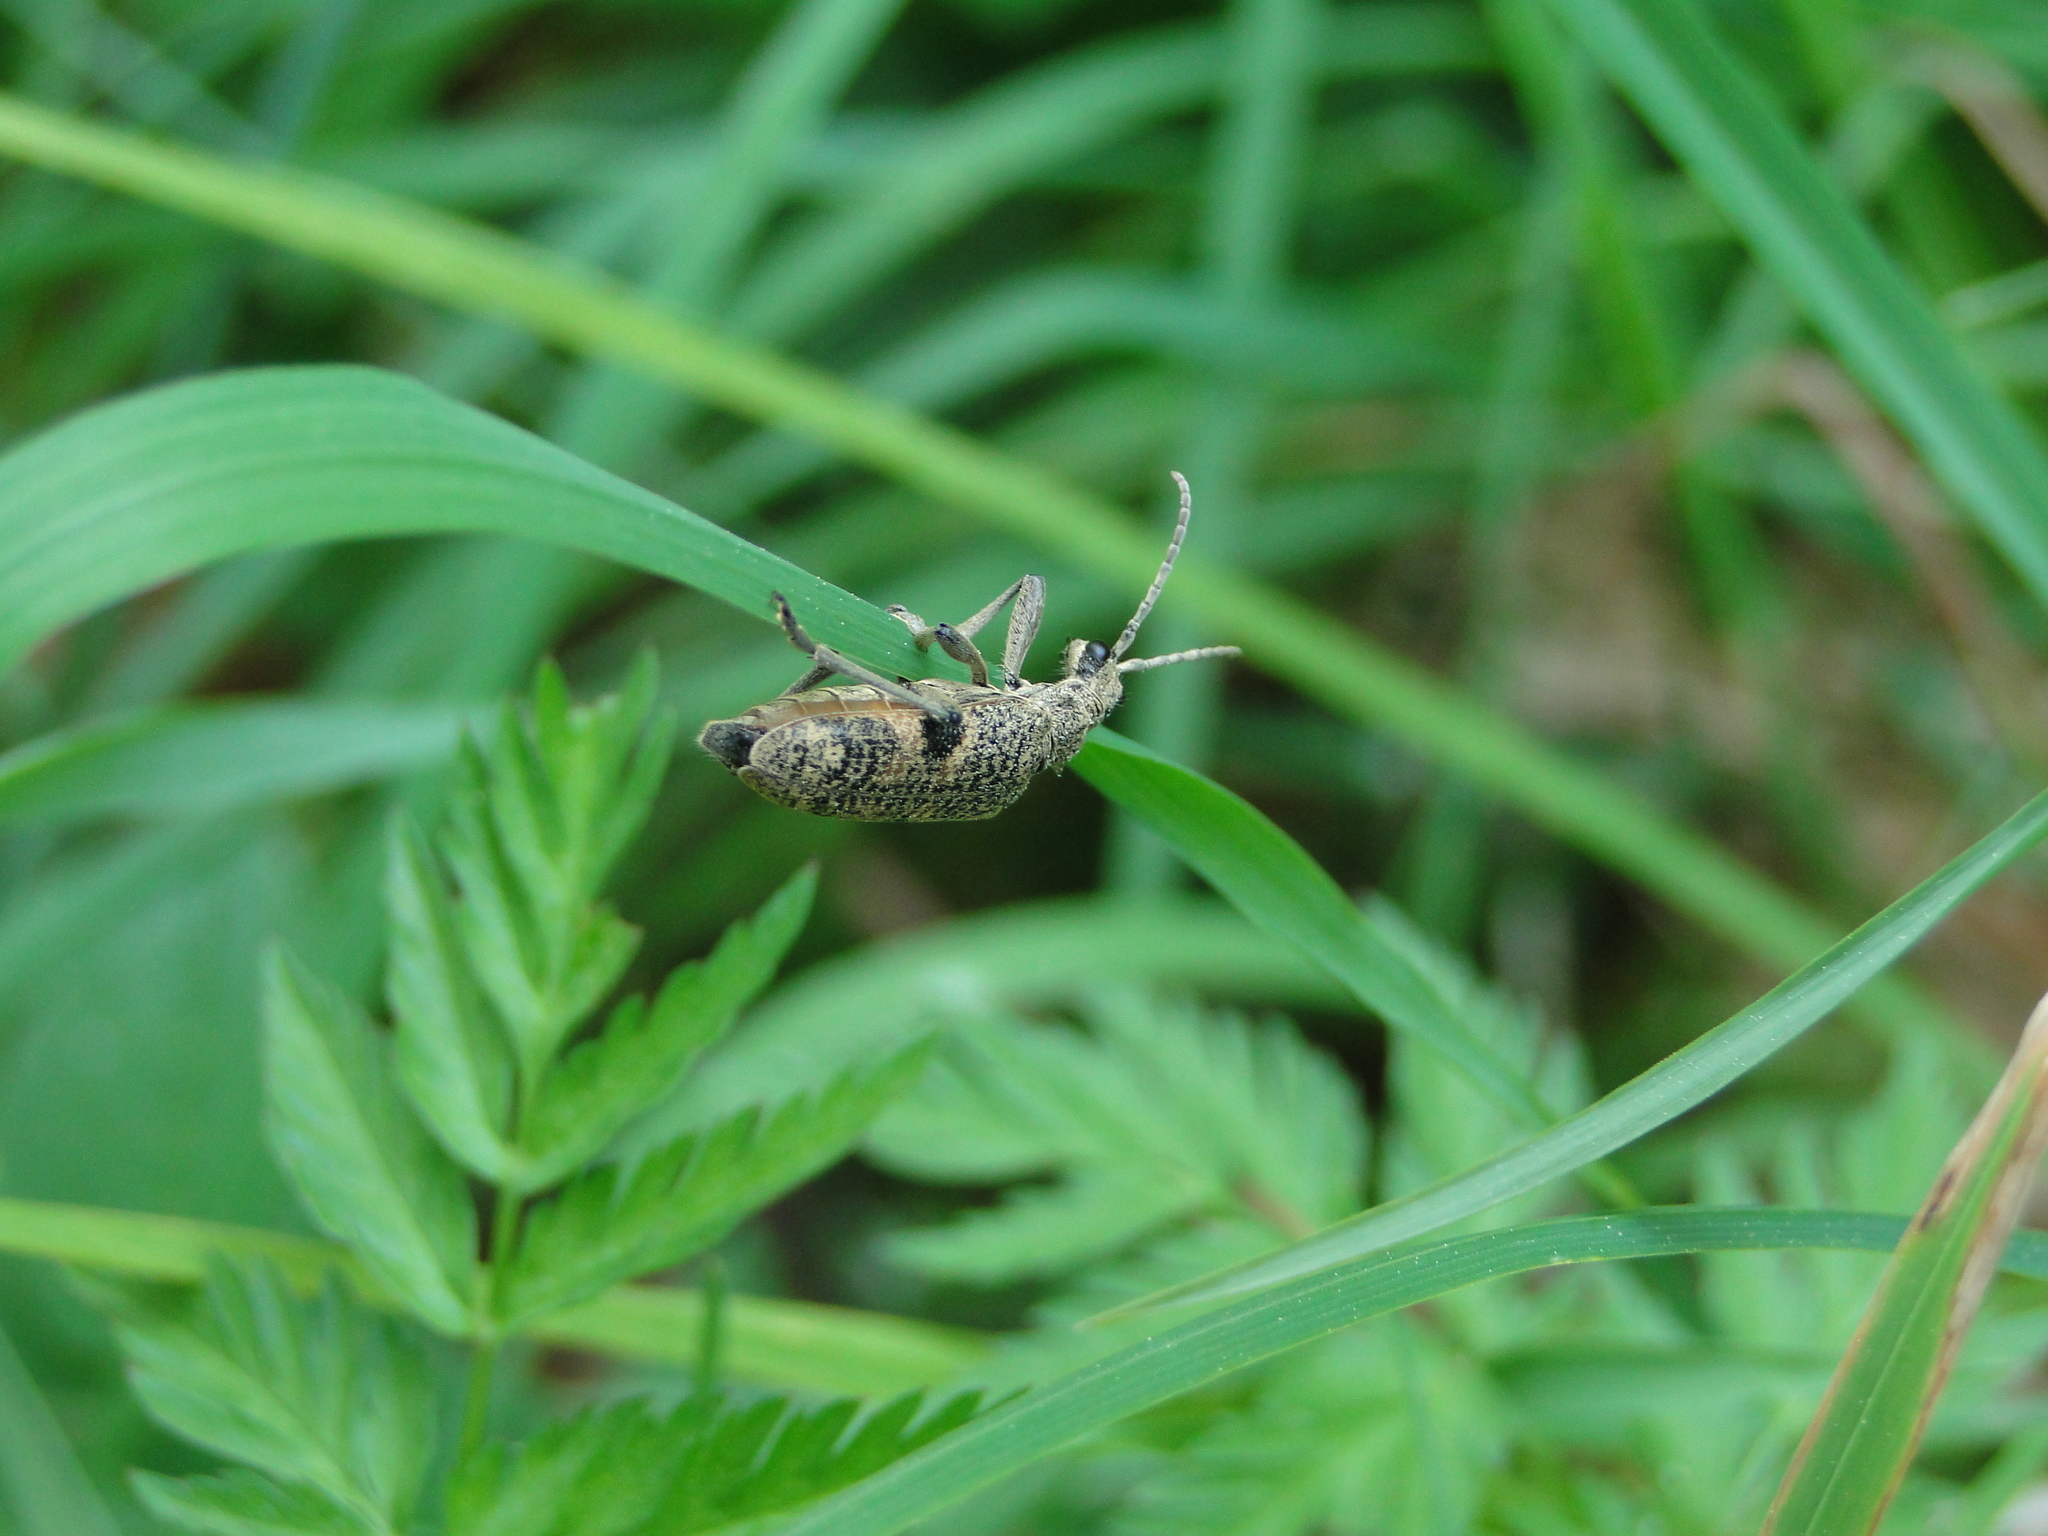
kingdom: Animalia
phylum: Arthropoda
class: Insecta
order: Coleoptera
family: Cerambycidae
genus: Rhagium
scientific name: Rhagium mordax
